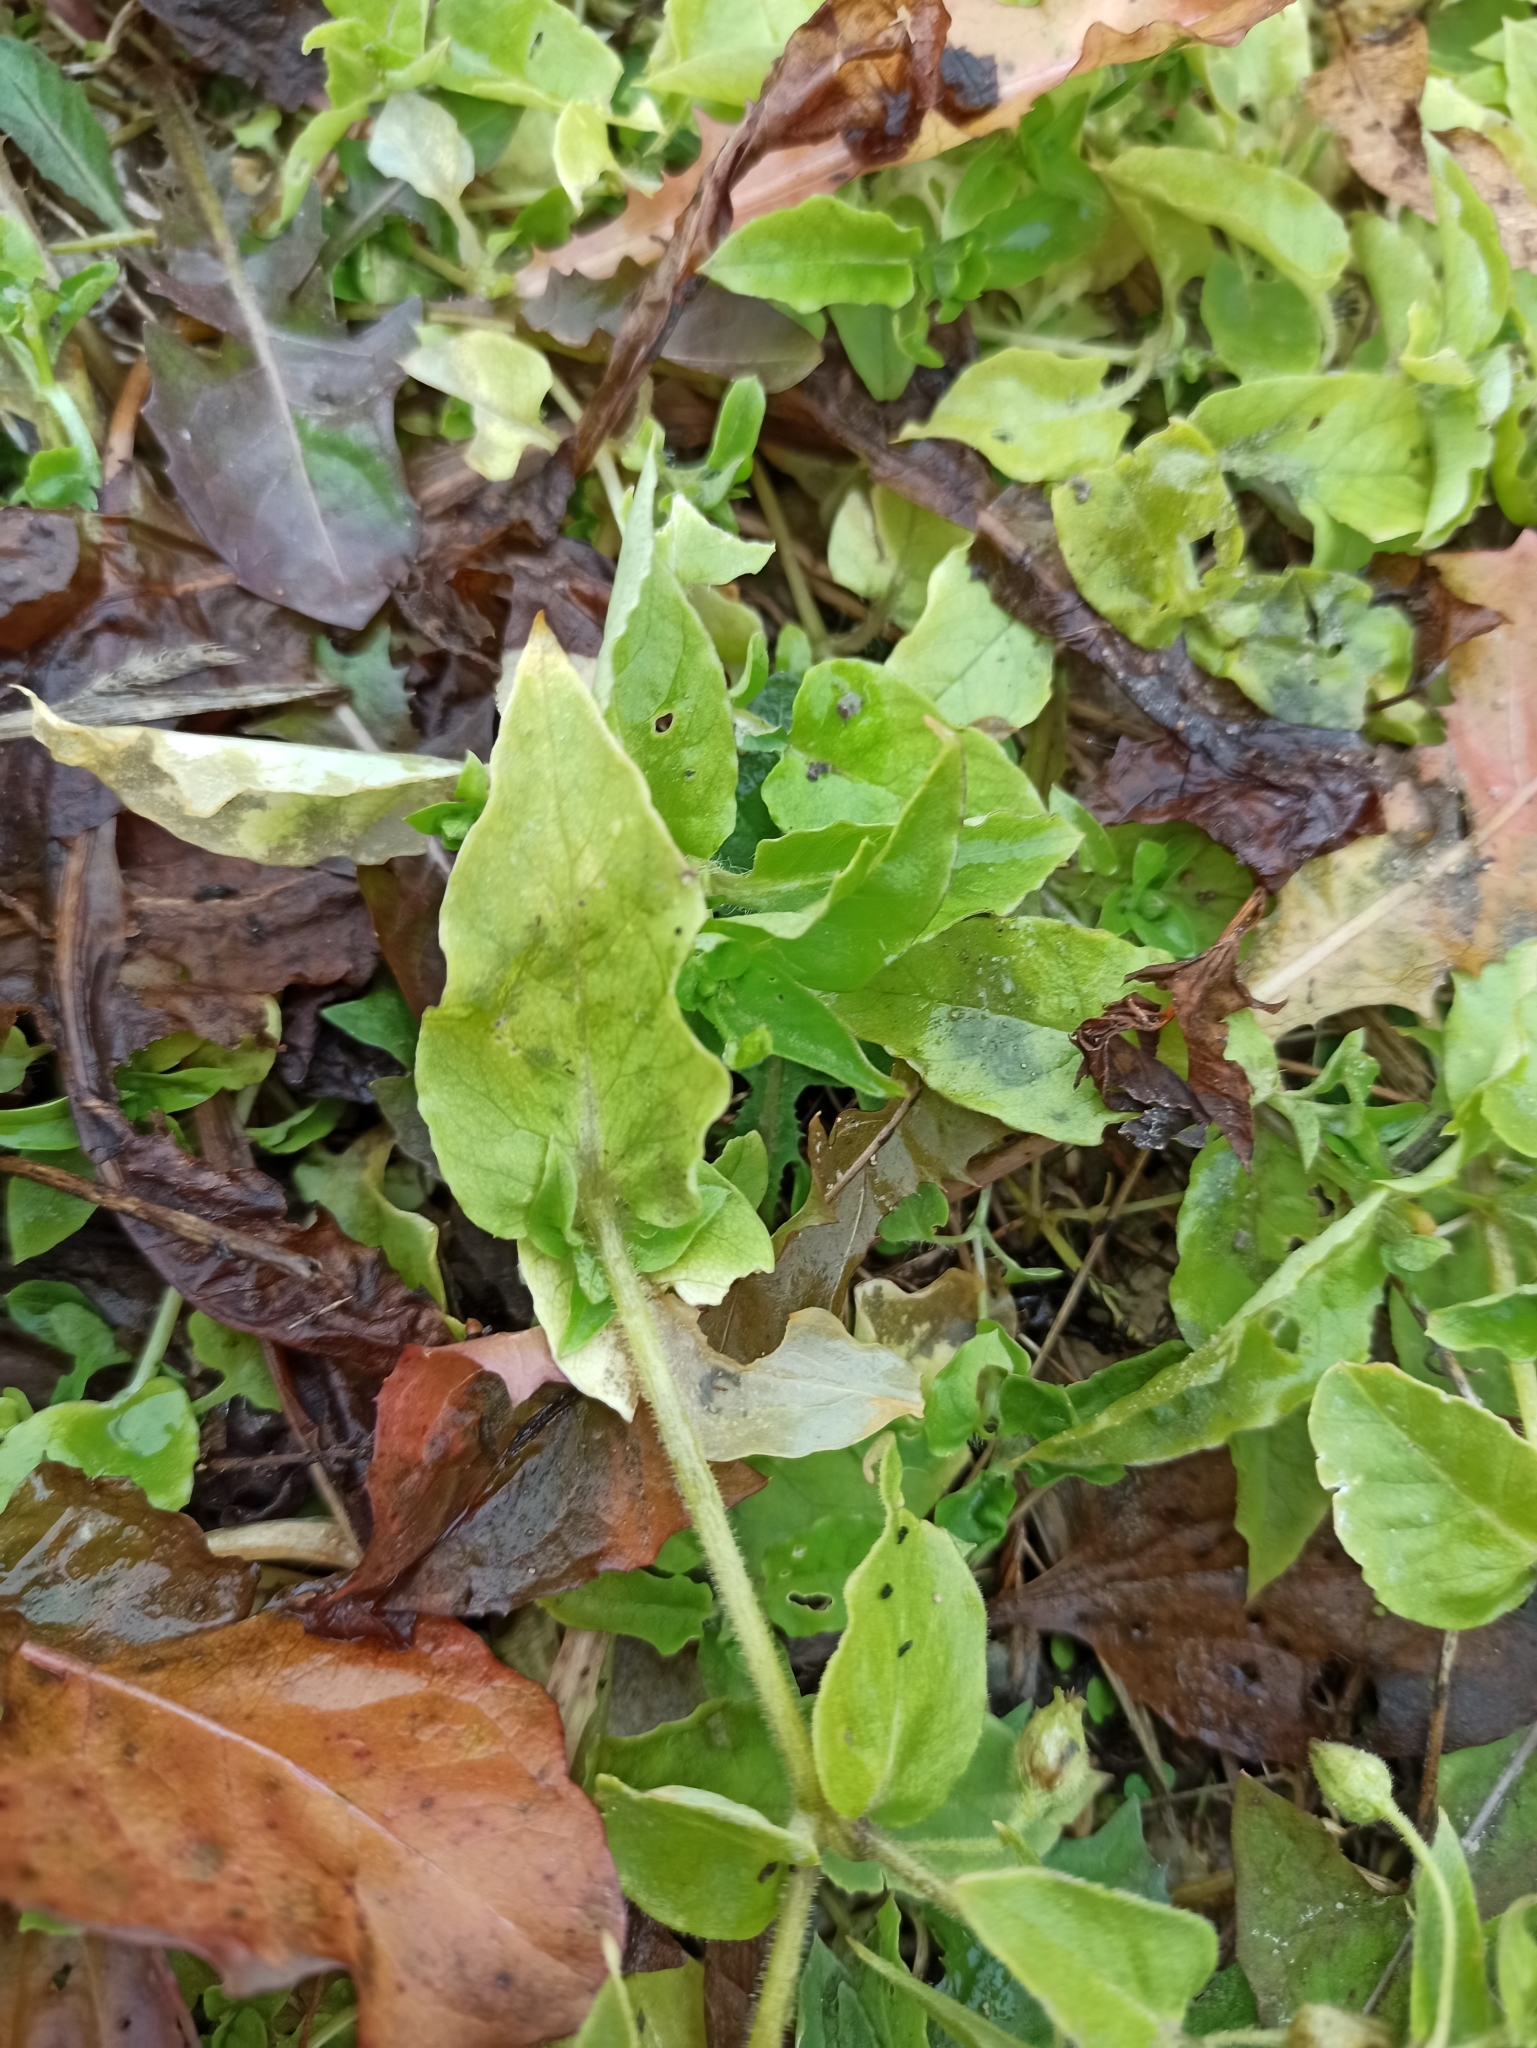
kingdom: Plantae
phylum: Tracheophyta
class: Magnoliopsida
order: Caryophyllales
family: Caryophyllaceae
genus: Stellaria
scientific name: Stellaria aquatica
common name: Water chickweed
